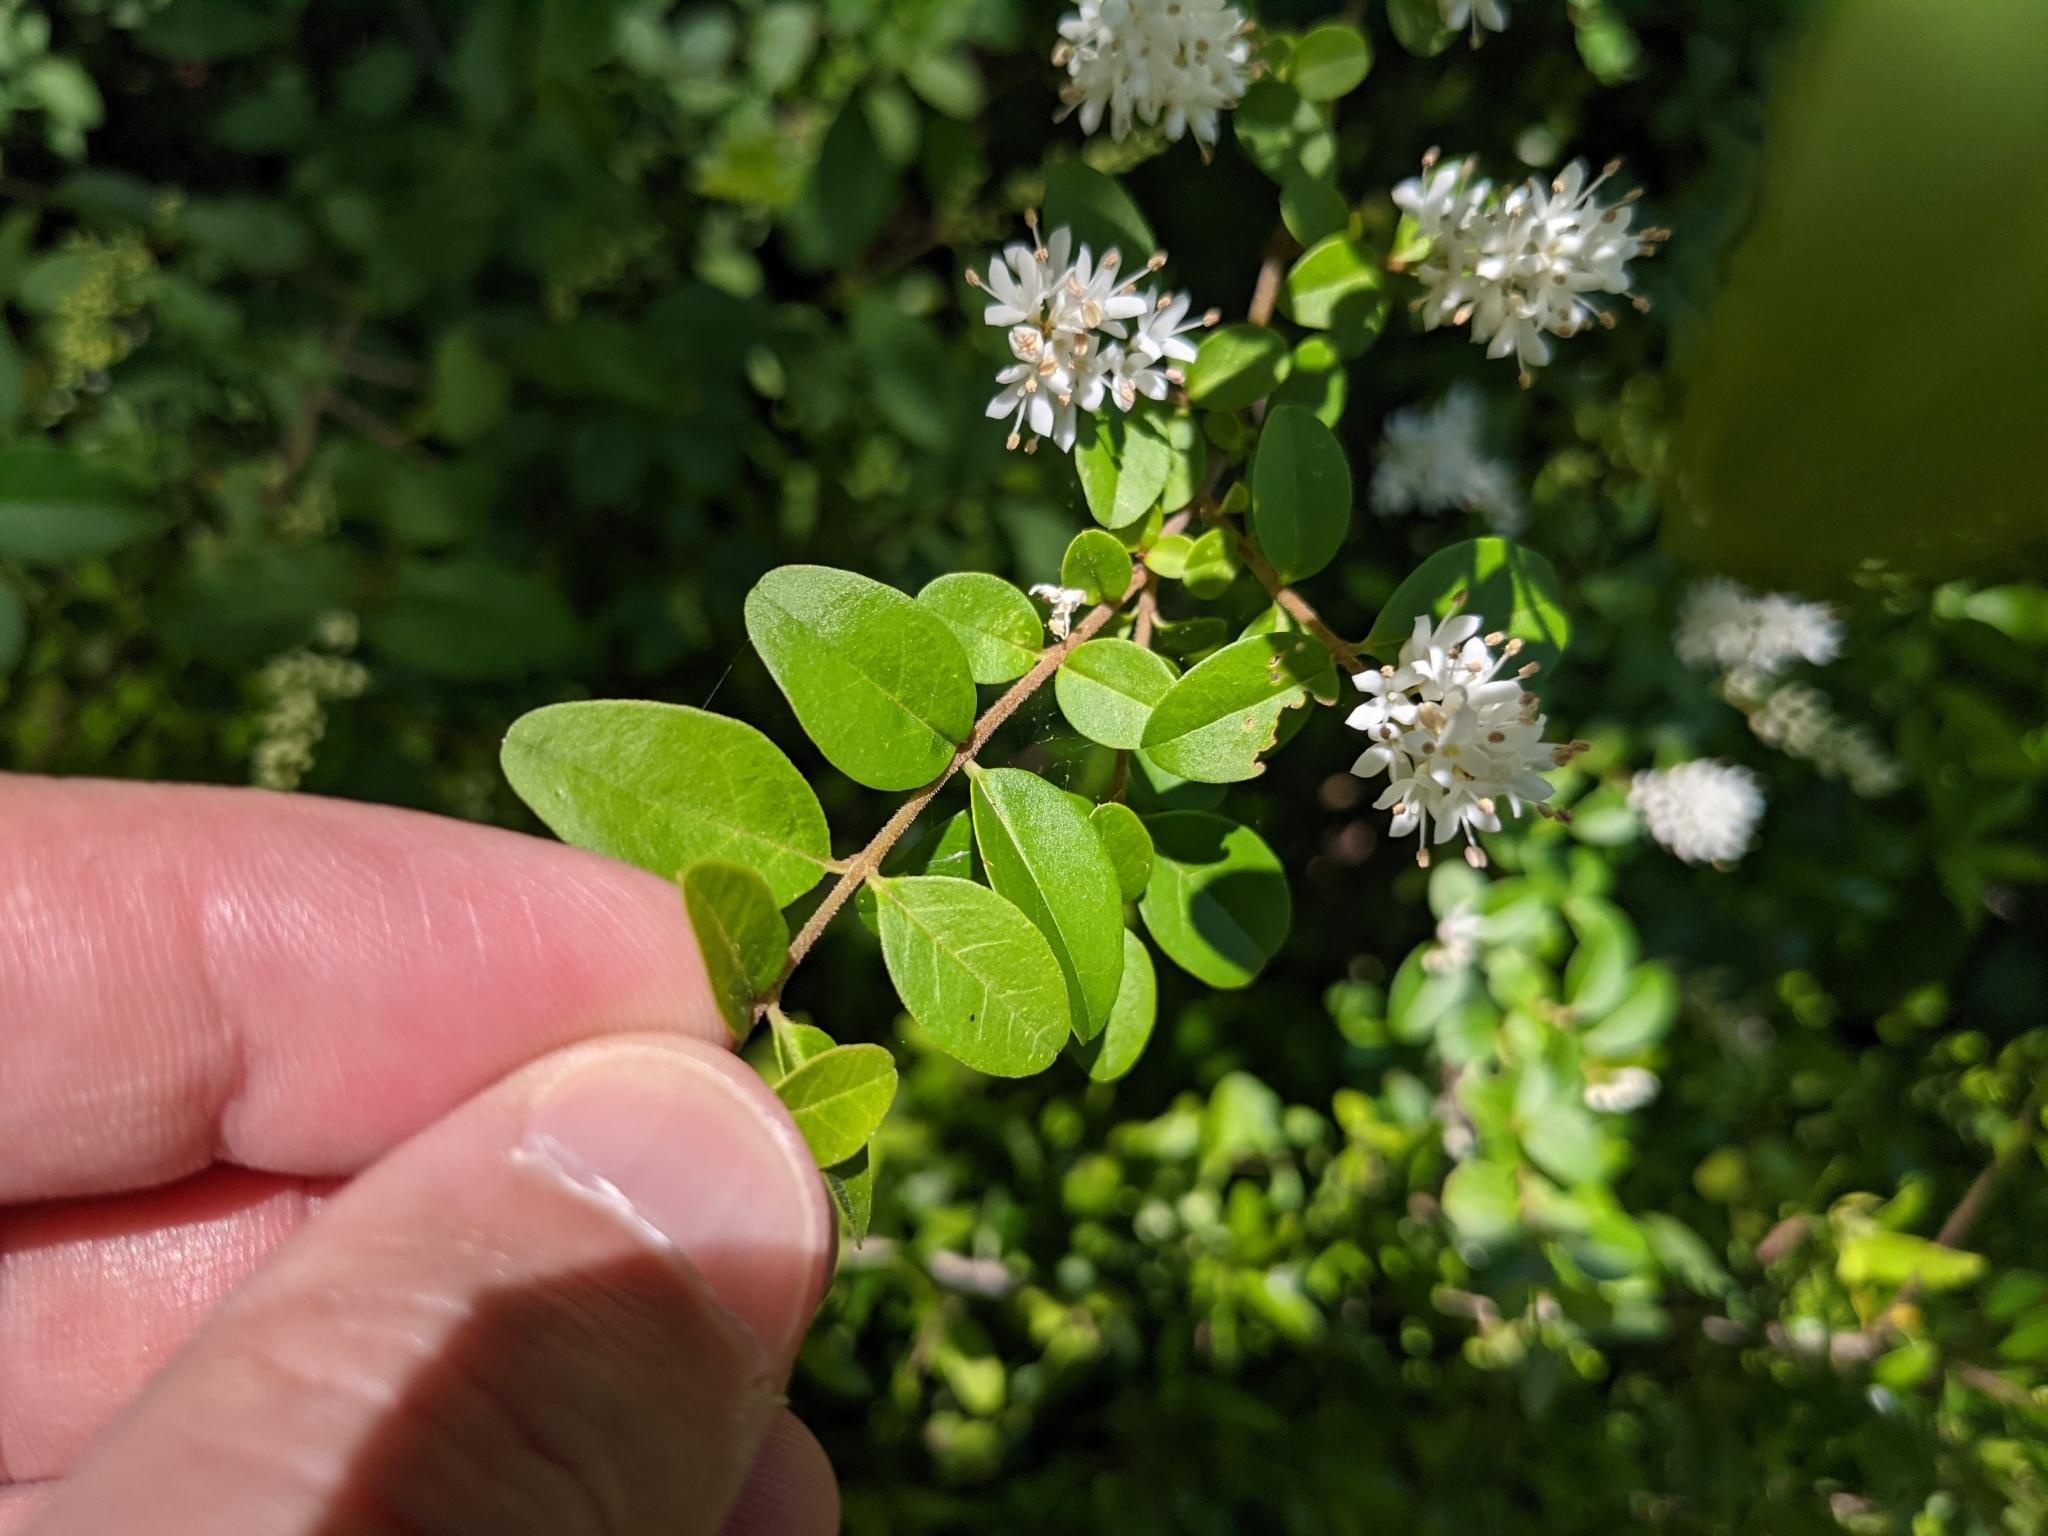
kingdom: Plantae
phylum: Tracheophyta
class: Magnoliopsida
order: Lamiales
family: Oleaceae
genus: Ligustrum
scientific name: Ligustrum sinense
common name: Chinese privet
